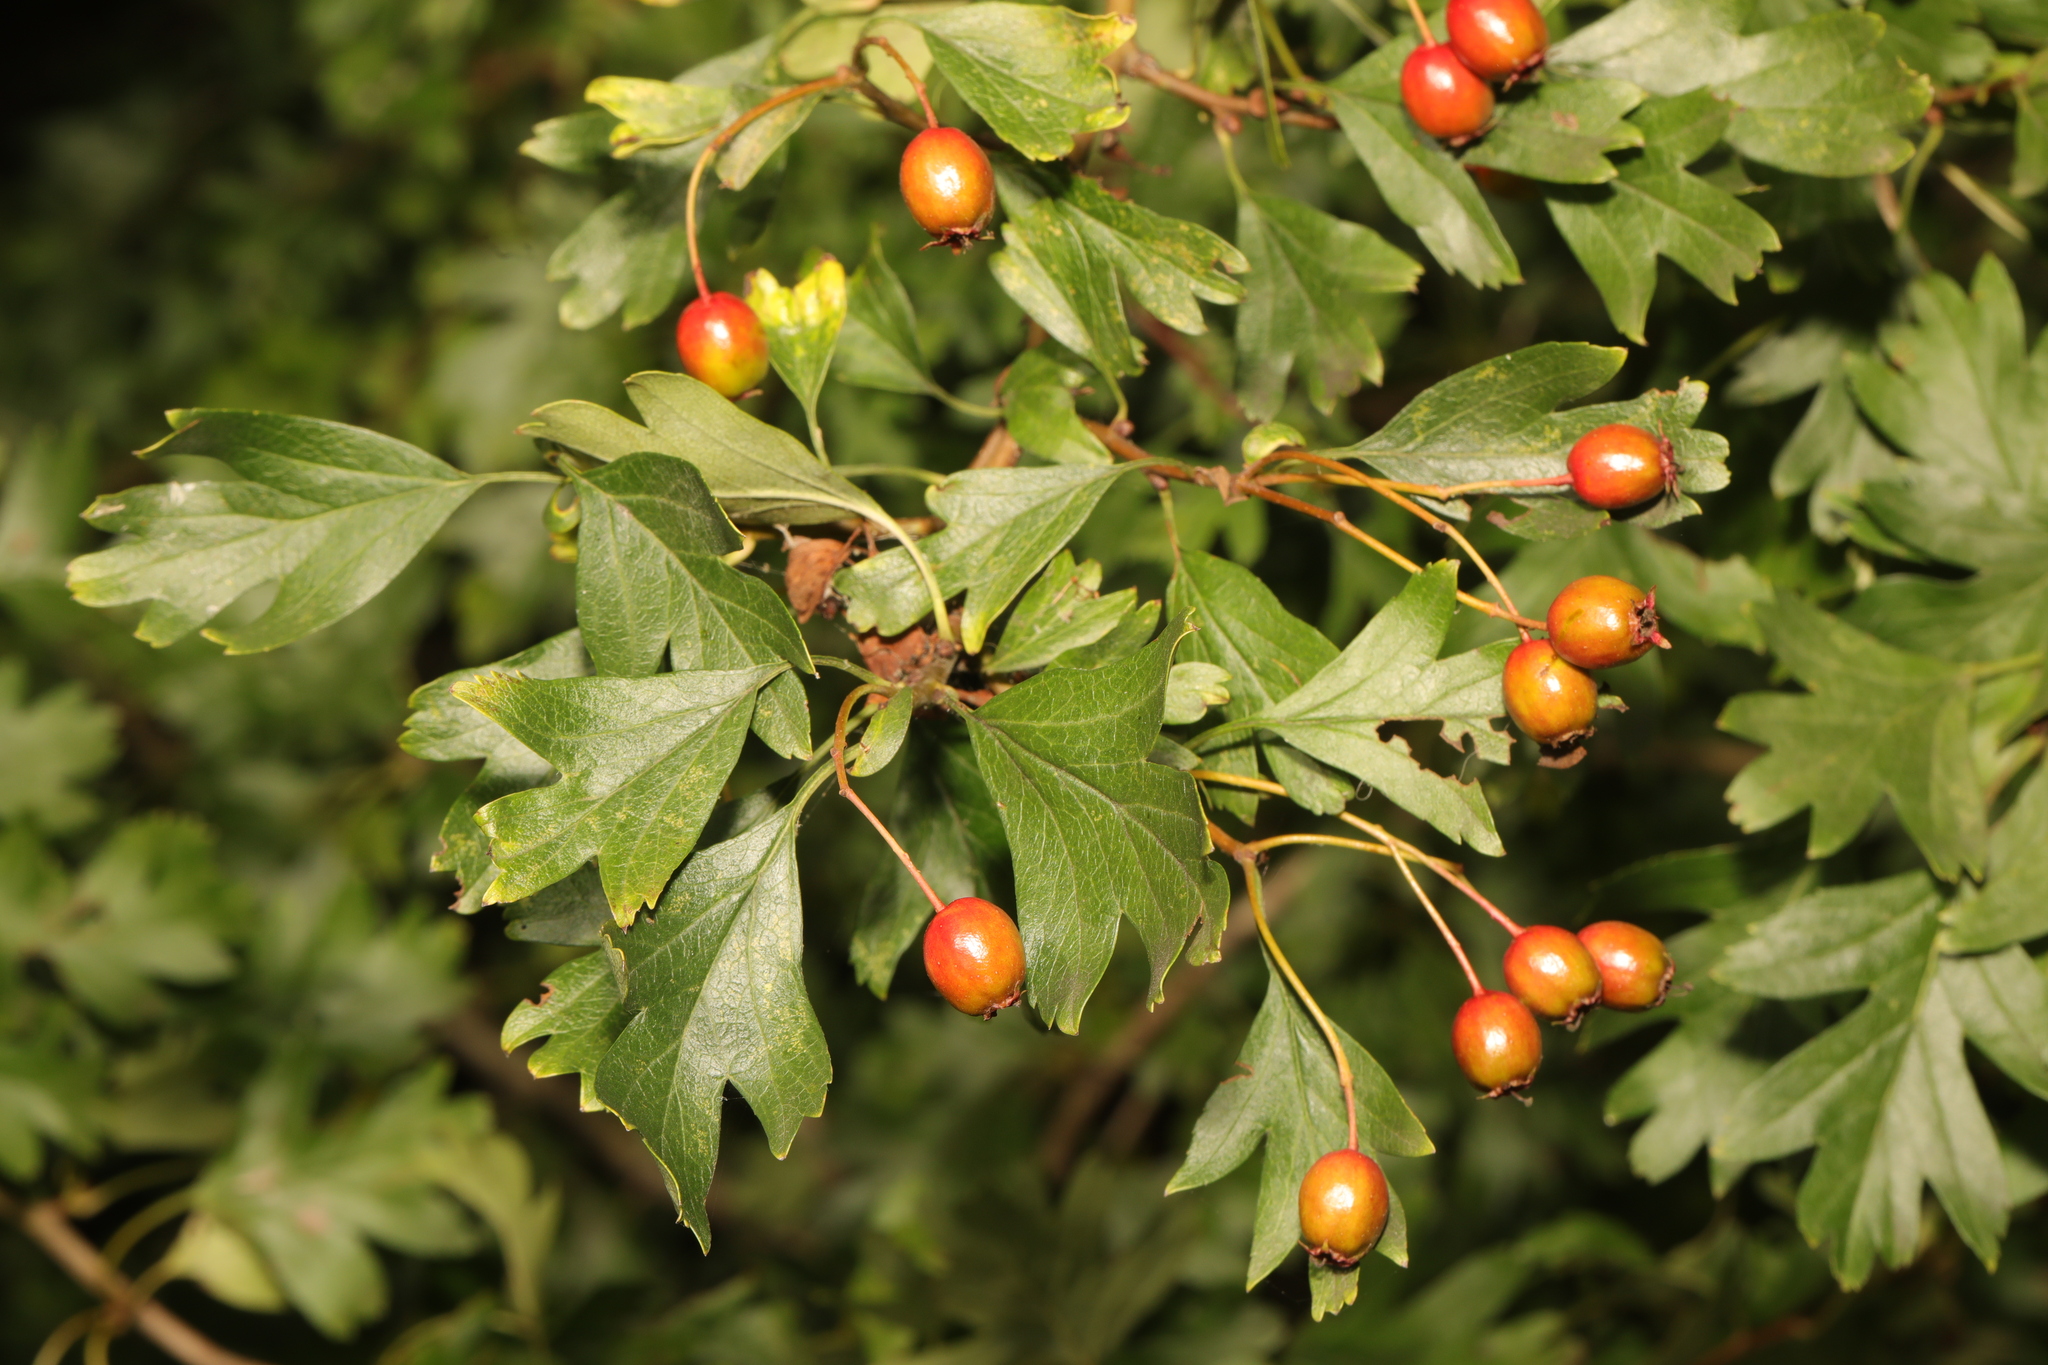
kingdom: Plantae
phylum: Tracheophyta
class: Magnoliopsida
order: Rosales
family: Rosaceae
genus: Crataegus
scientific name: Crataegus monogyna
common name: Hawthorn
